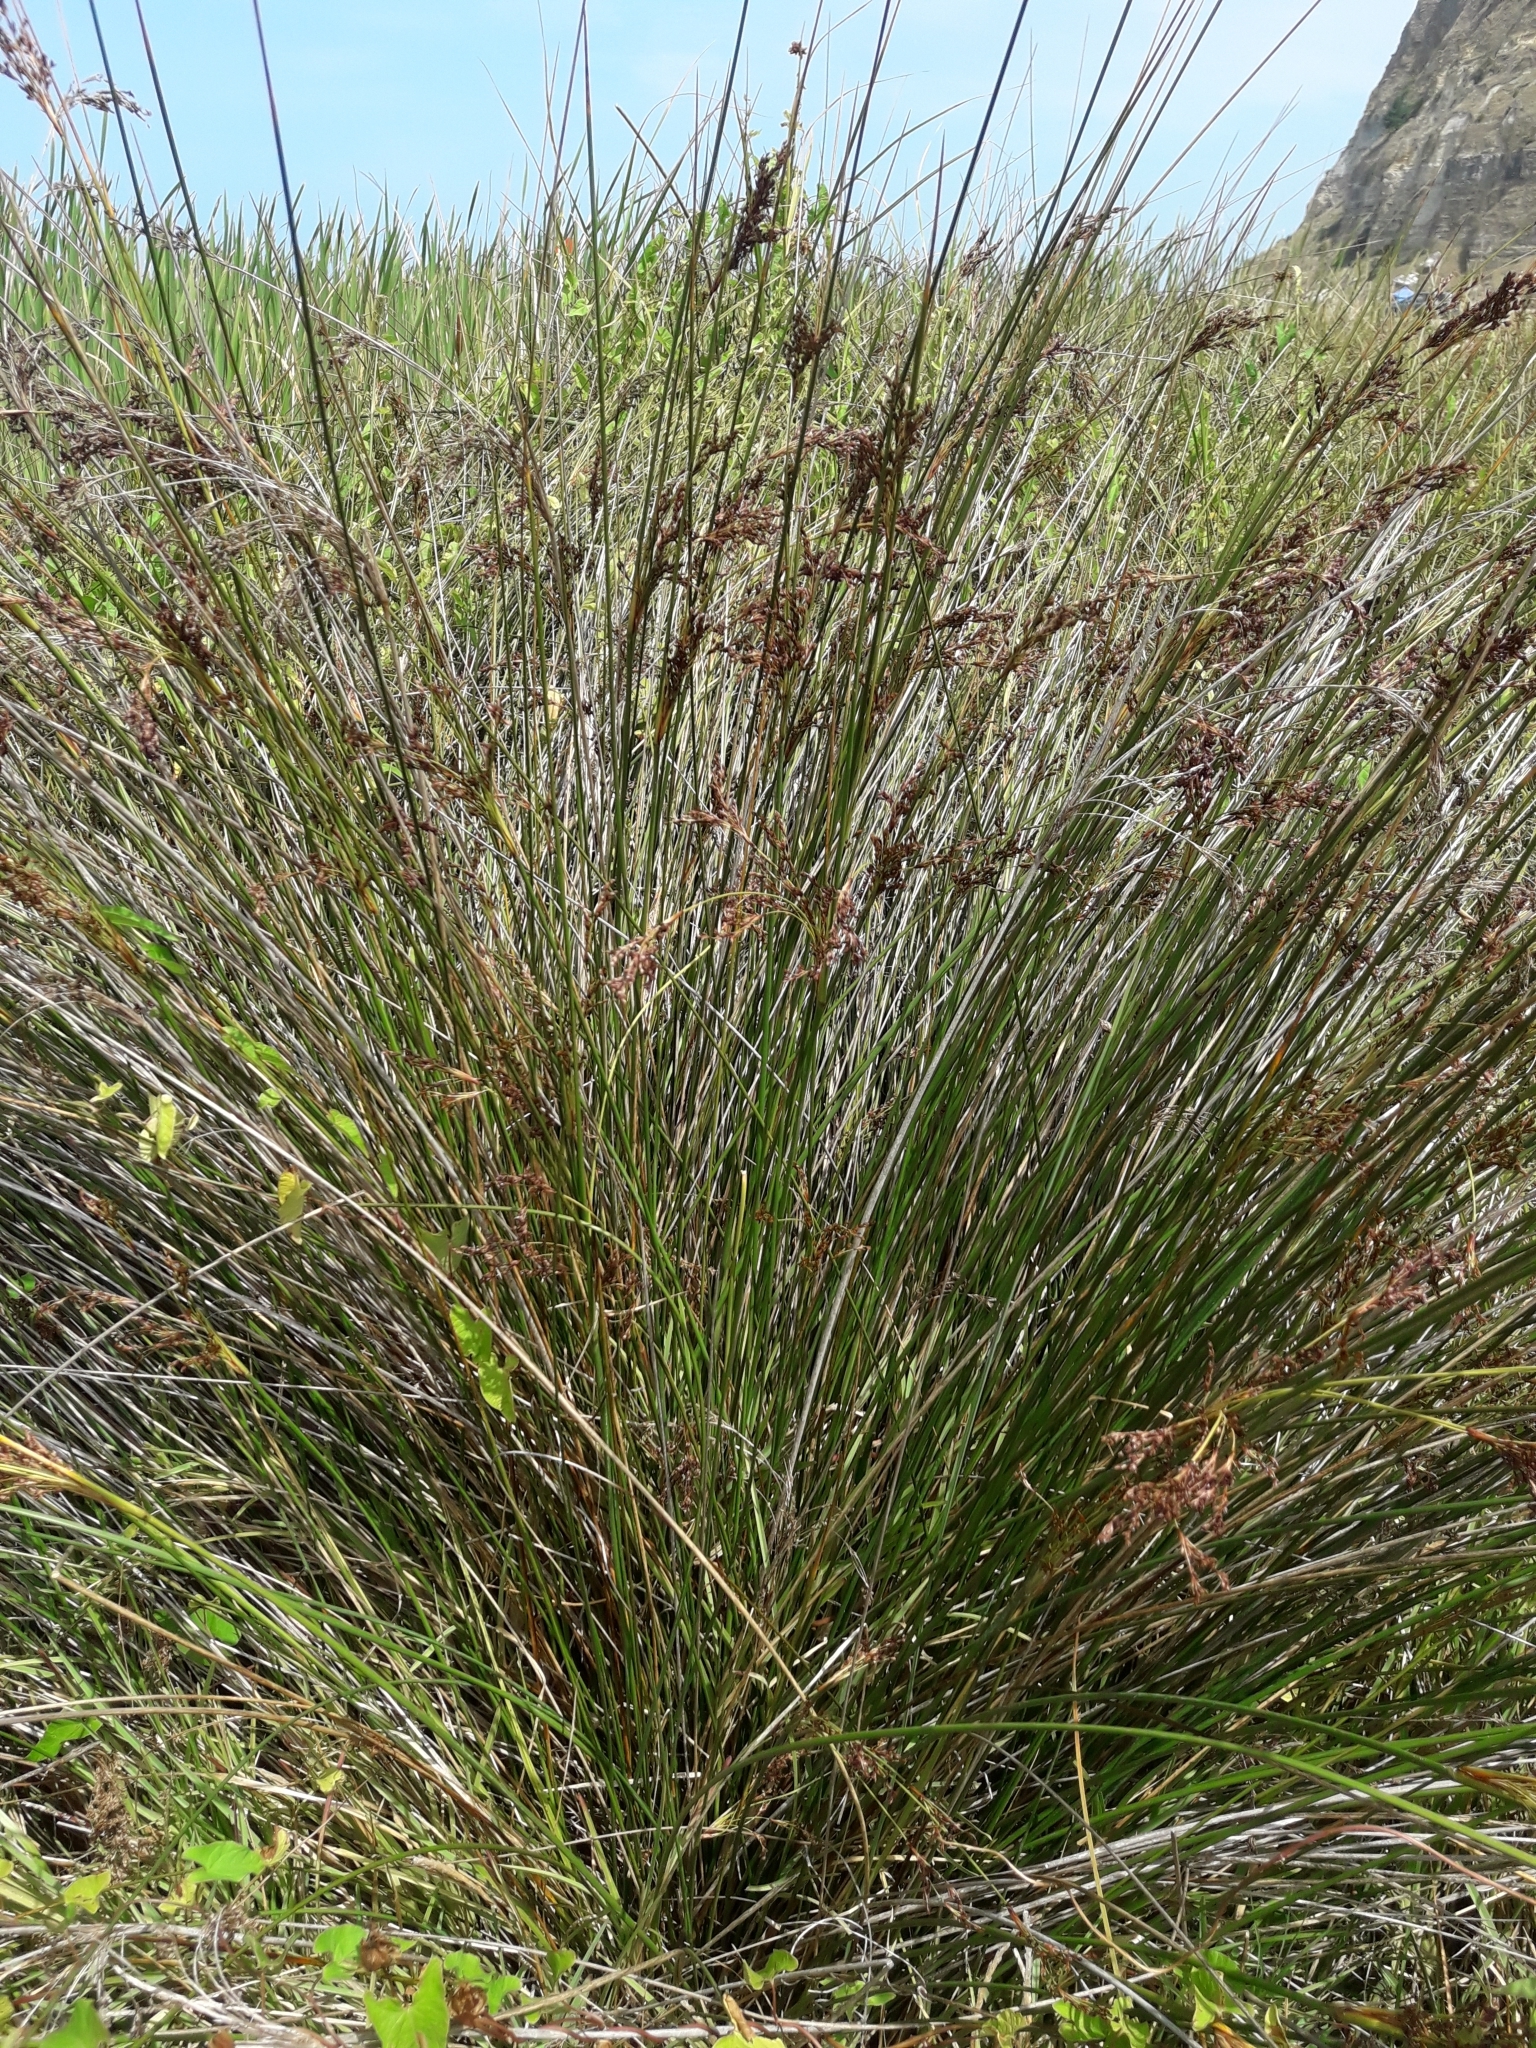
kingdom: Plantae
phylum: Tracheophyta
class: Liliopsida
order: Poales
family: Juncaceae
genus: Juncus
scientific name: Juncus kraussii
